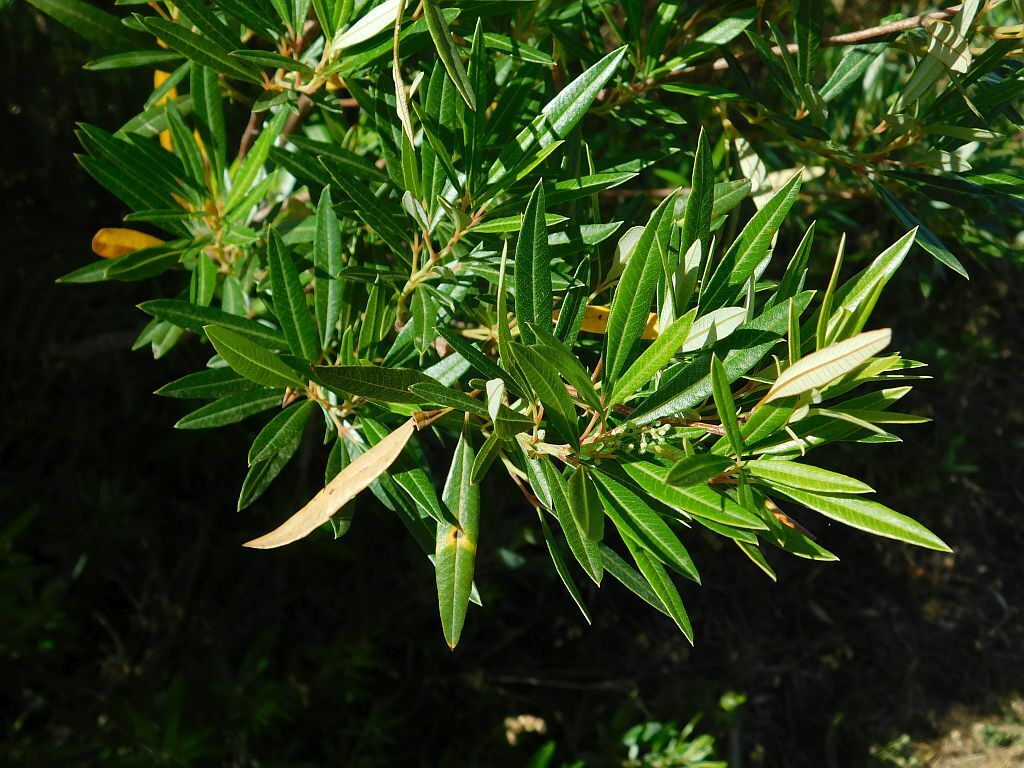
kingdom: Plantae
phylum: Tracheophyta
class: Magnoliopsida
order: Sapindales
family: Anacardiaceae
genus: Searsia
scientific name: Searsia angustifolia
